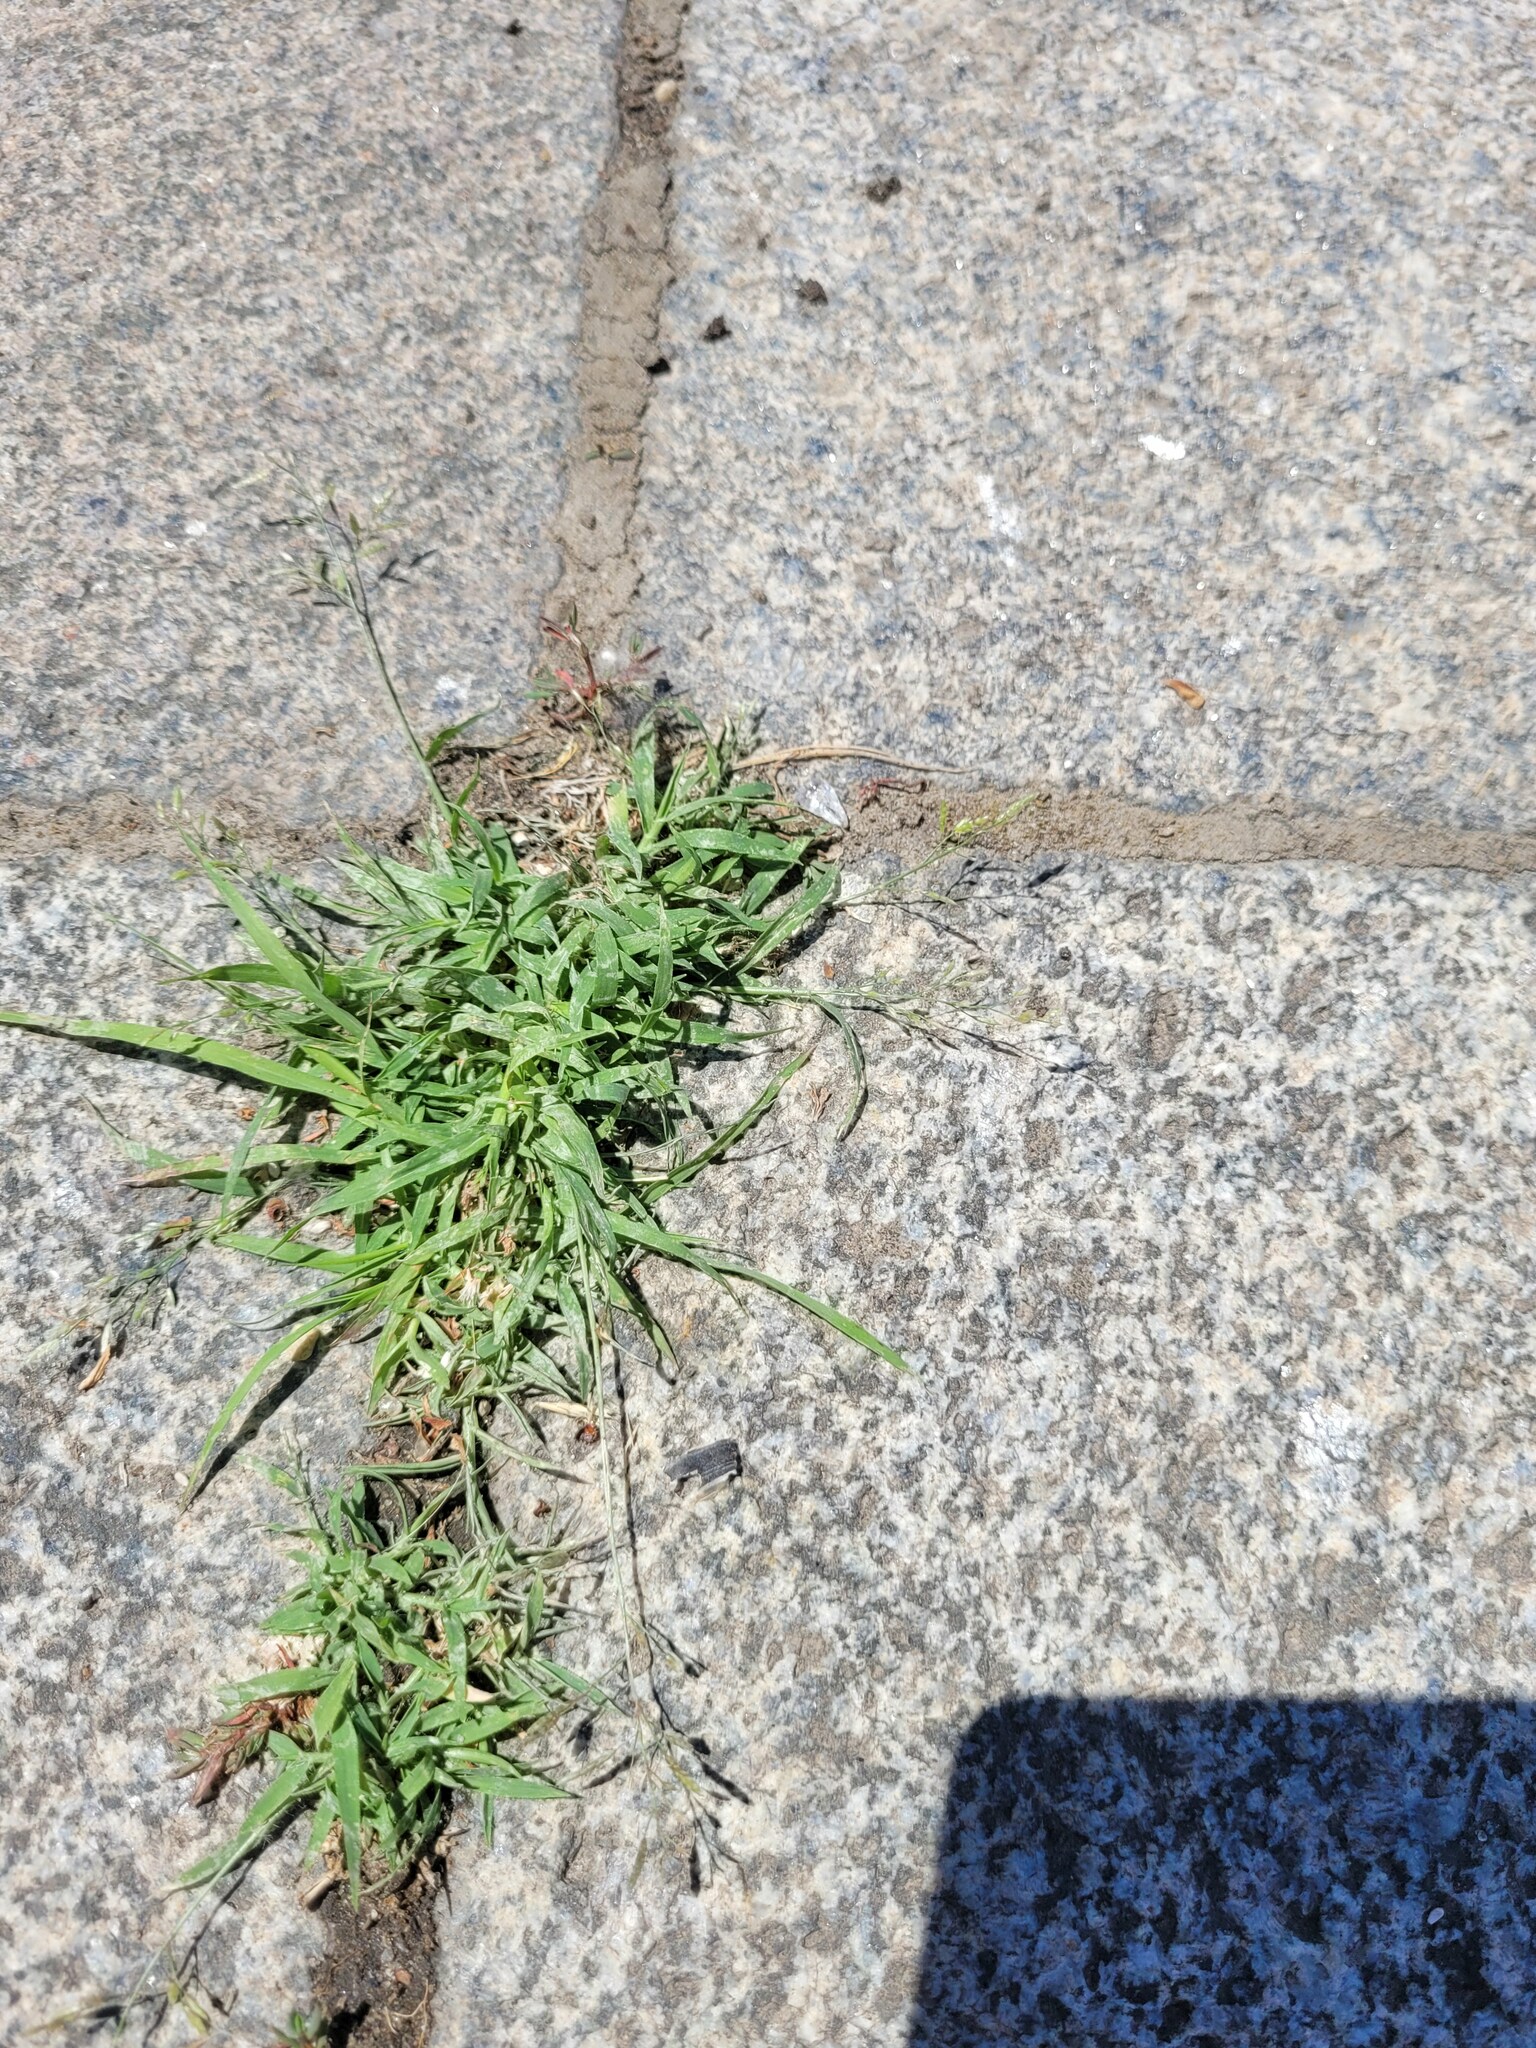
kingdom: Plantae
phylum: Tracheophyta
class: Liliopsida
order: Poales
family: Poaceae
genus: Eragrostis
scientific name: Eragrostis minor
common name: Small love-grass
